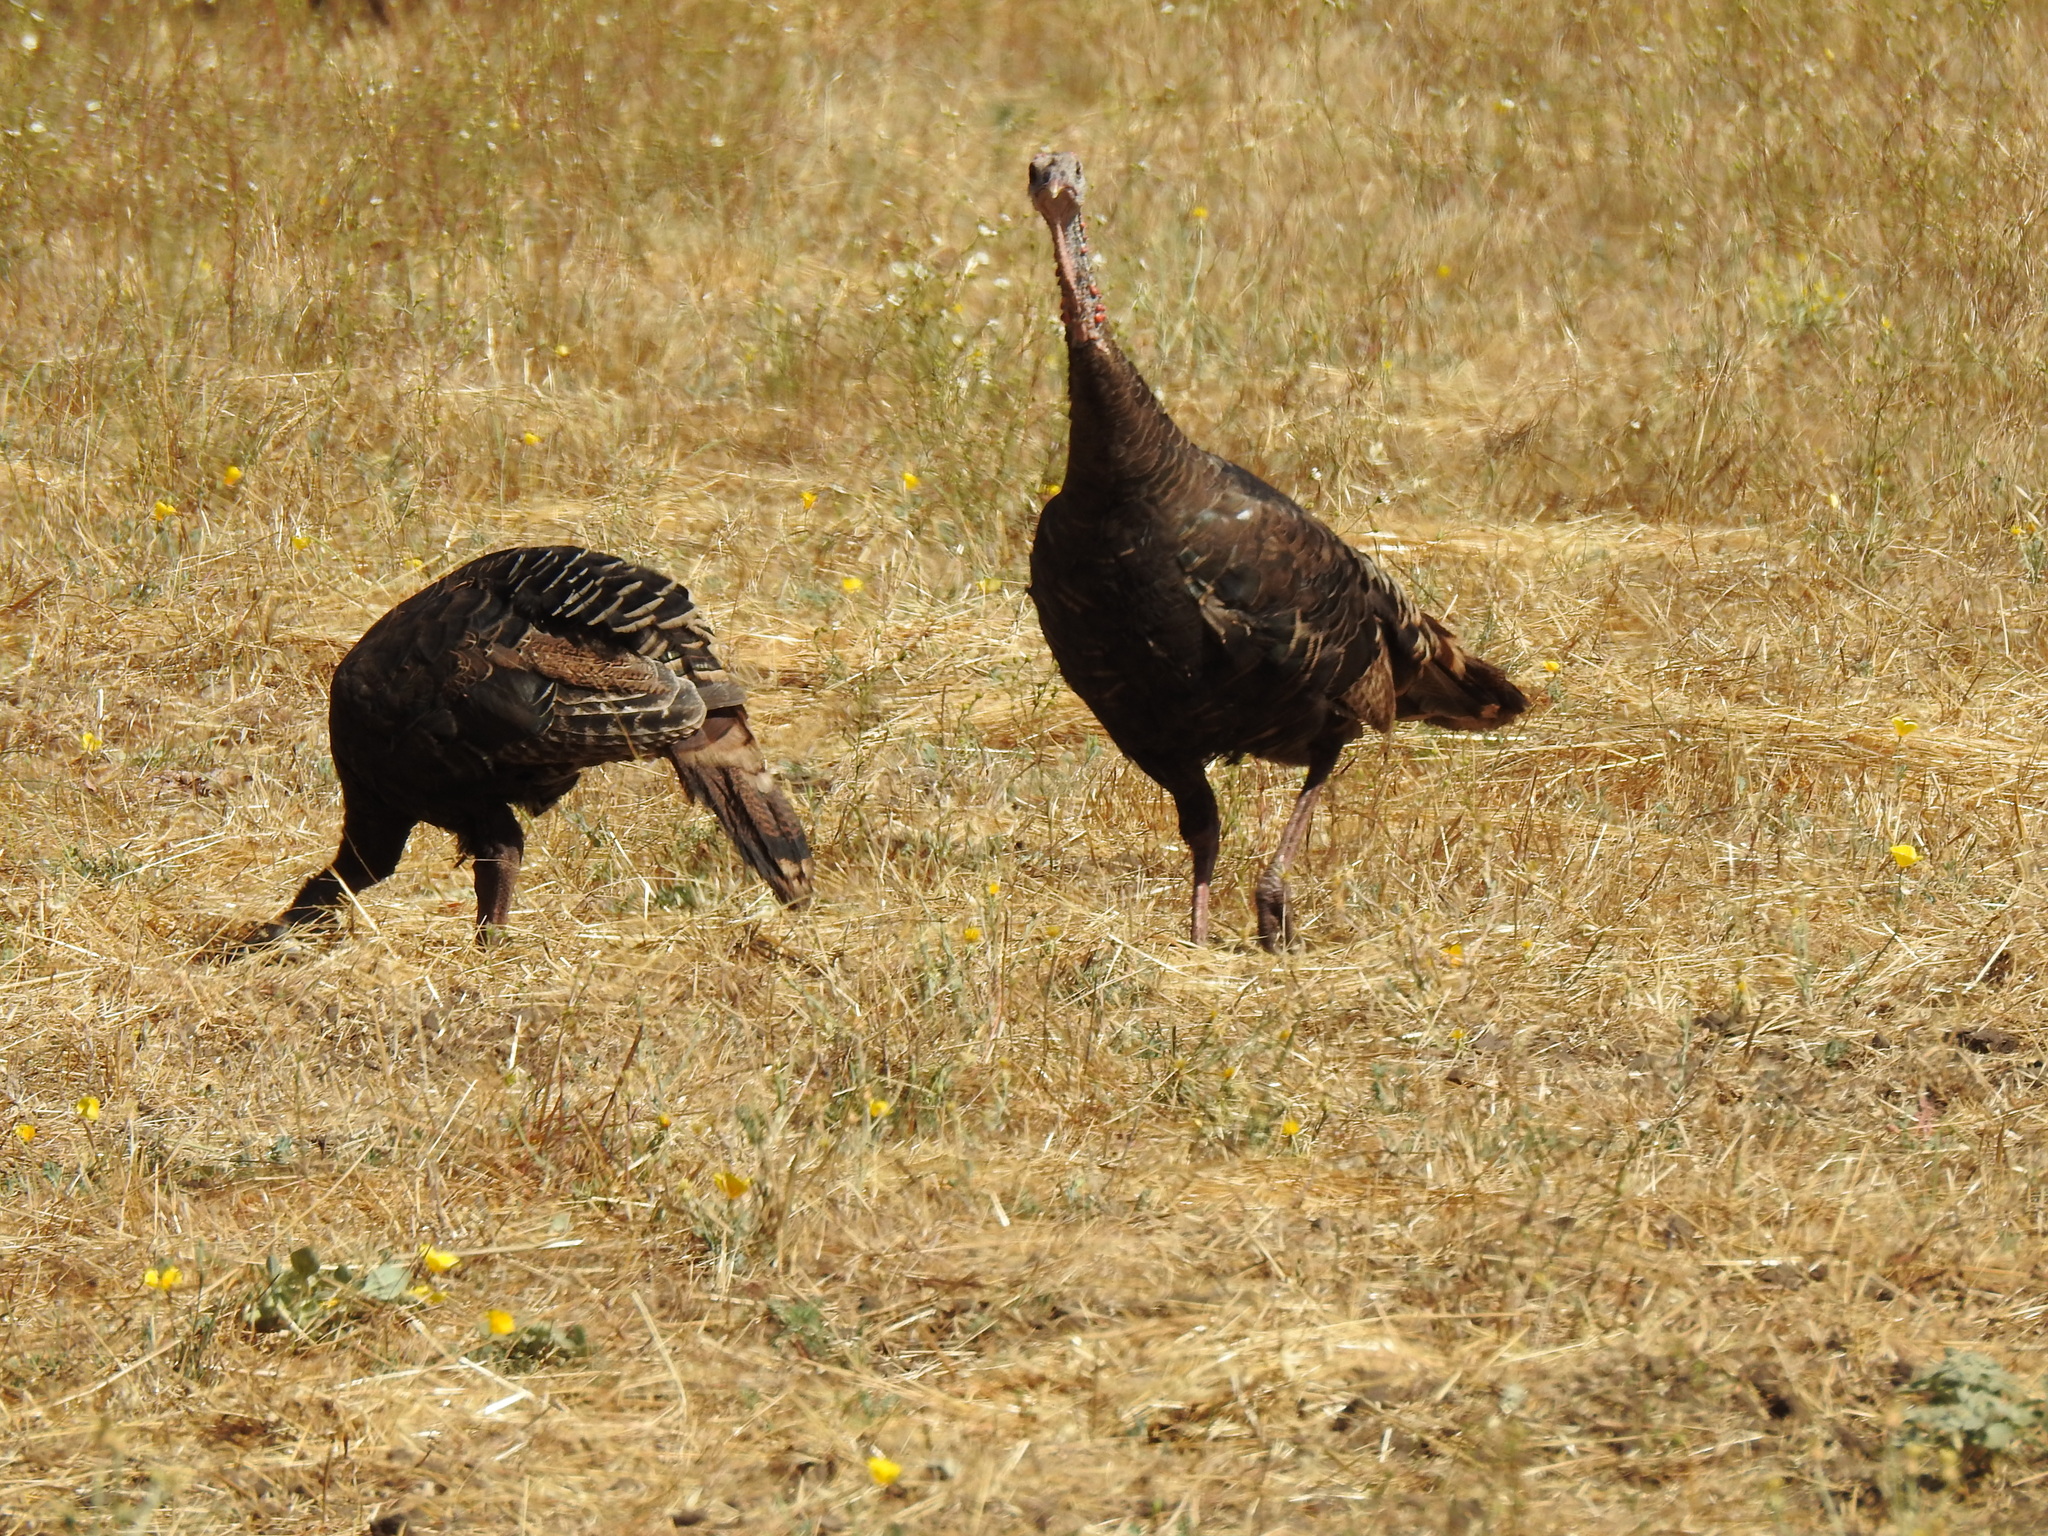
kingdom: Animalia
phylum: Chordata
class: Aves
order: Galliformes
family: Phasianidae
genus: Meleagris
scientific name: Meleagris gallopavo
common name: Wild turkey
